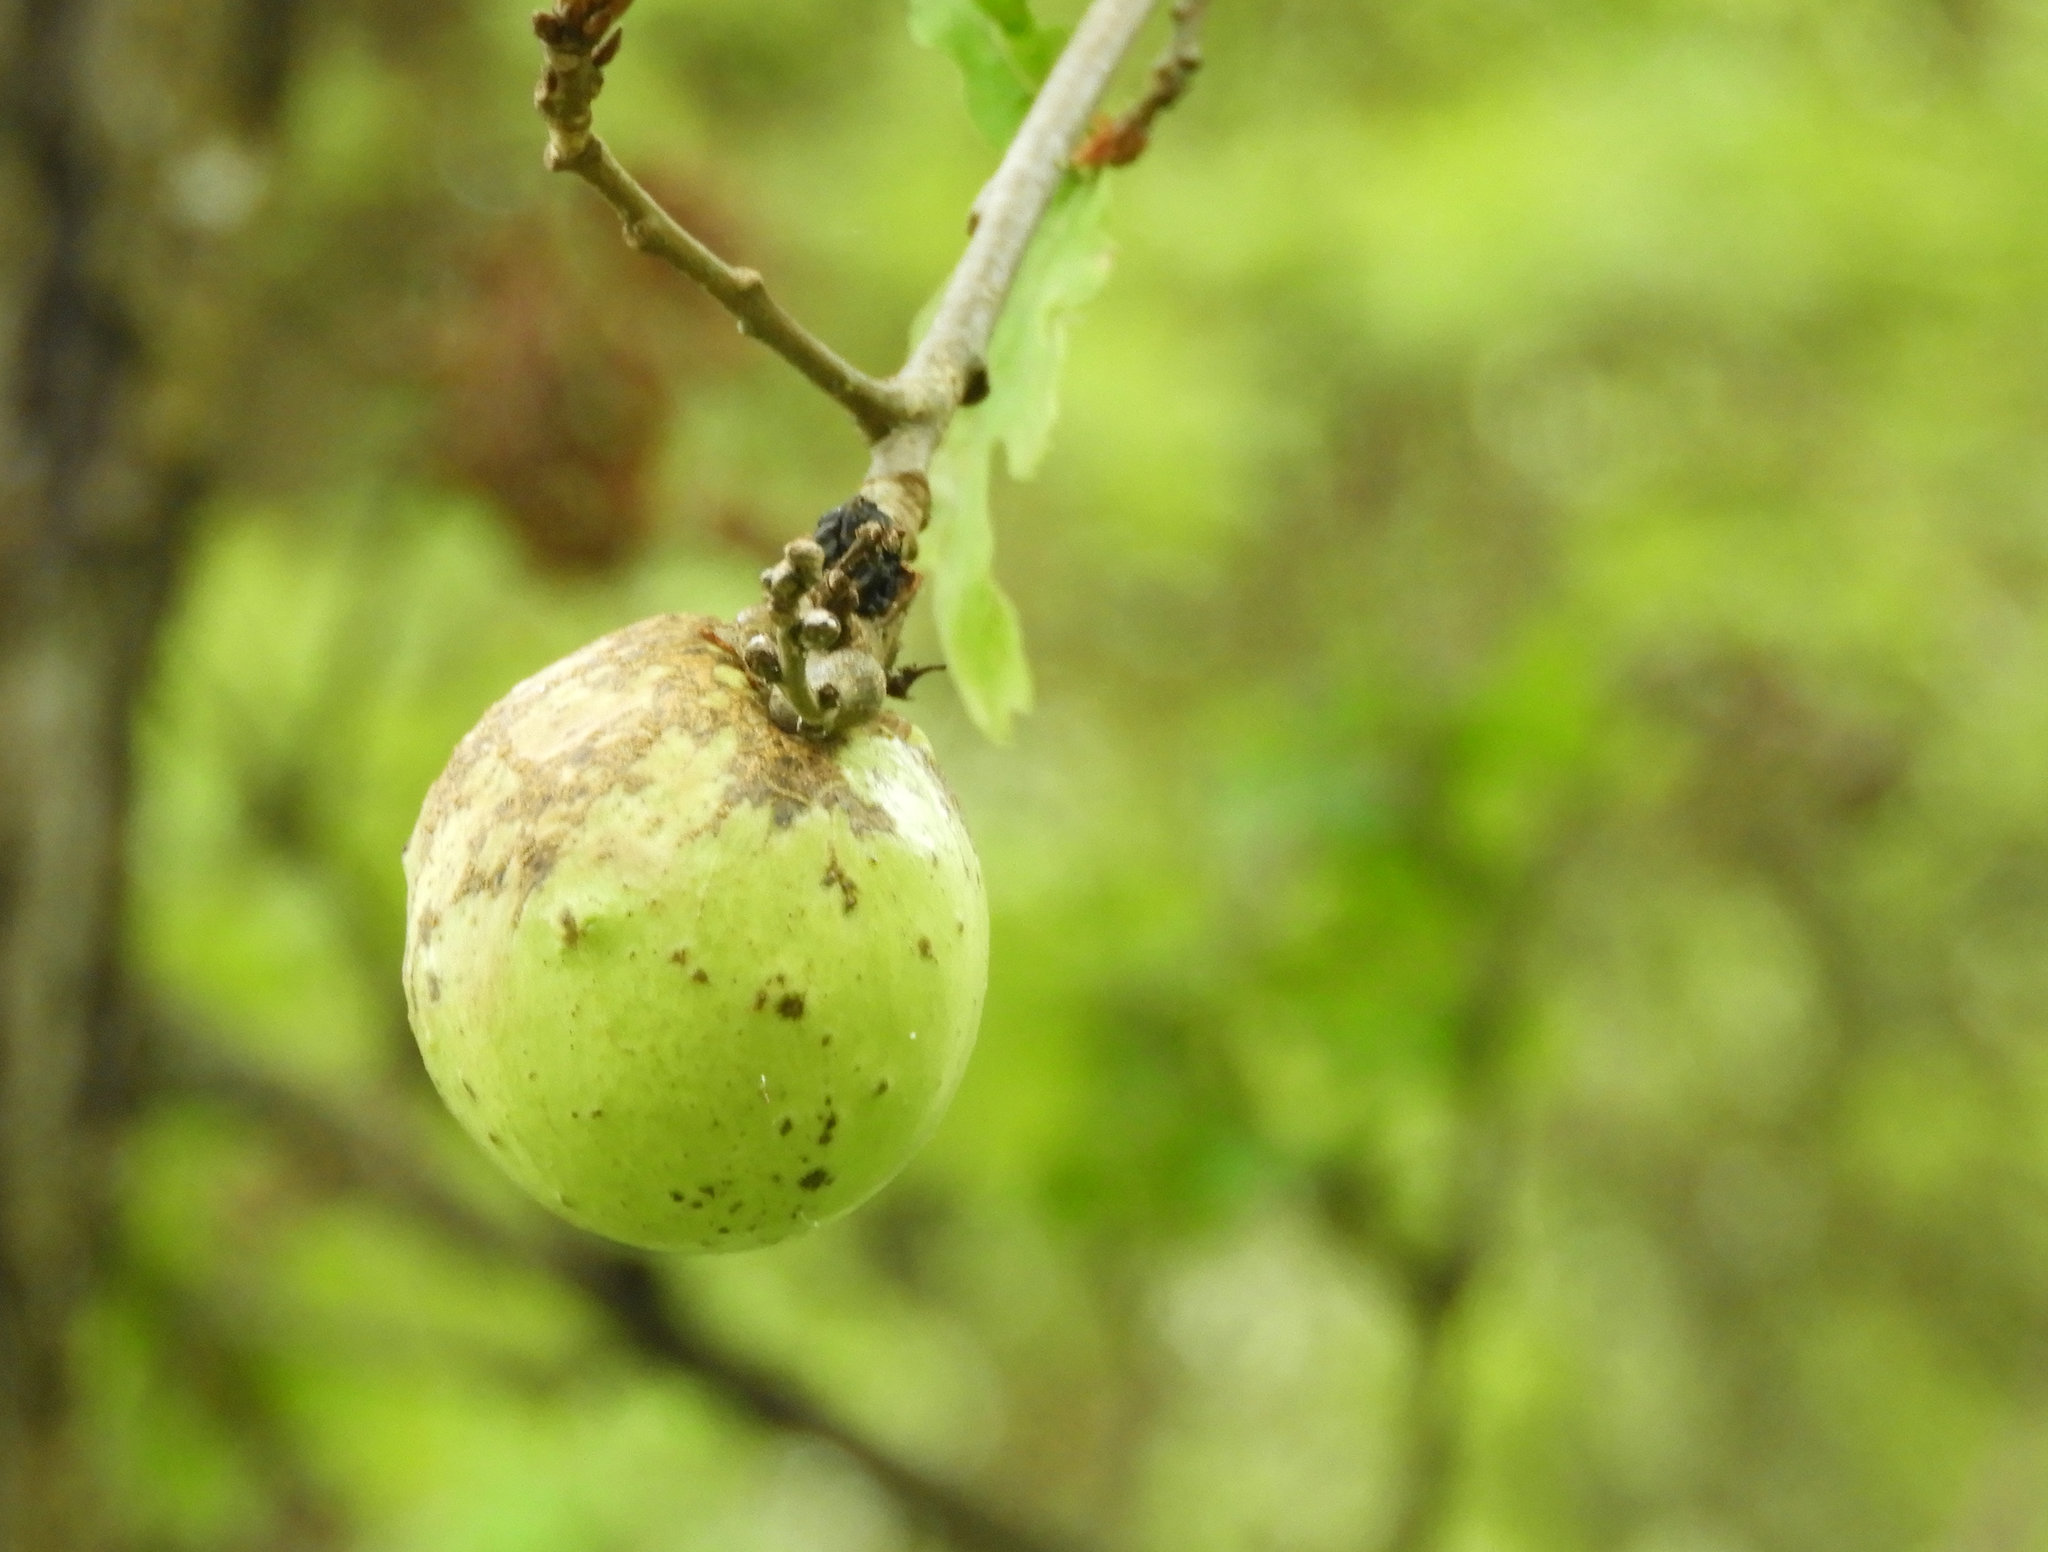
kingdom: Animalia
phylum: Arthropoda
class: Insecta
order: Hymenoptera
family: Cynipidae
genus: Andricus
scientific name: Andricus quercuscalifornicus
